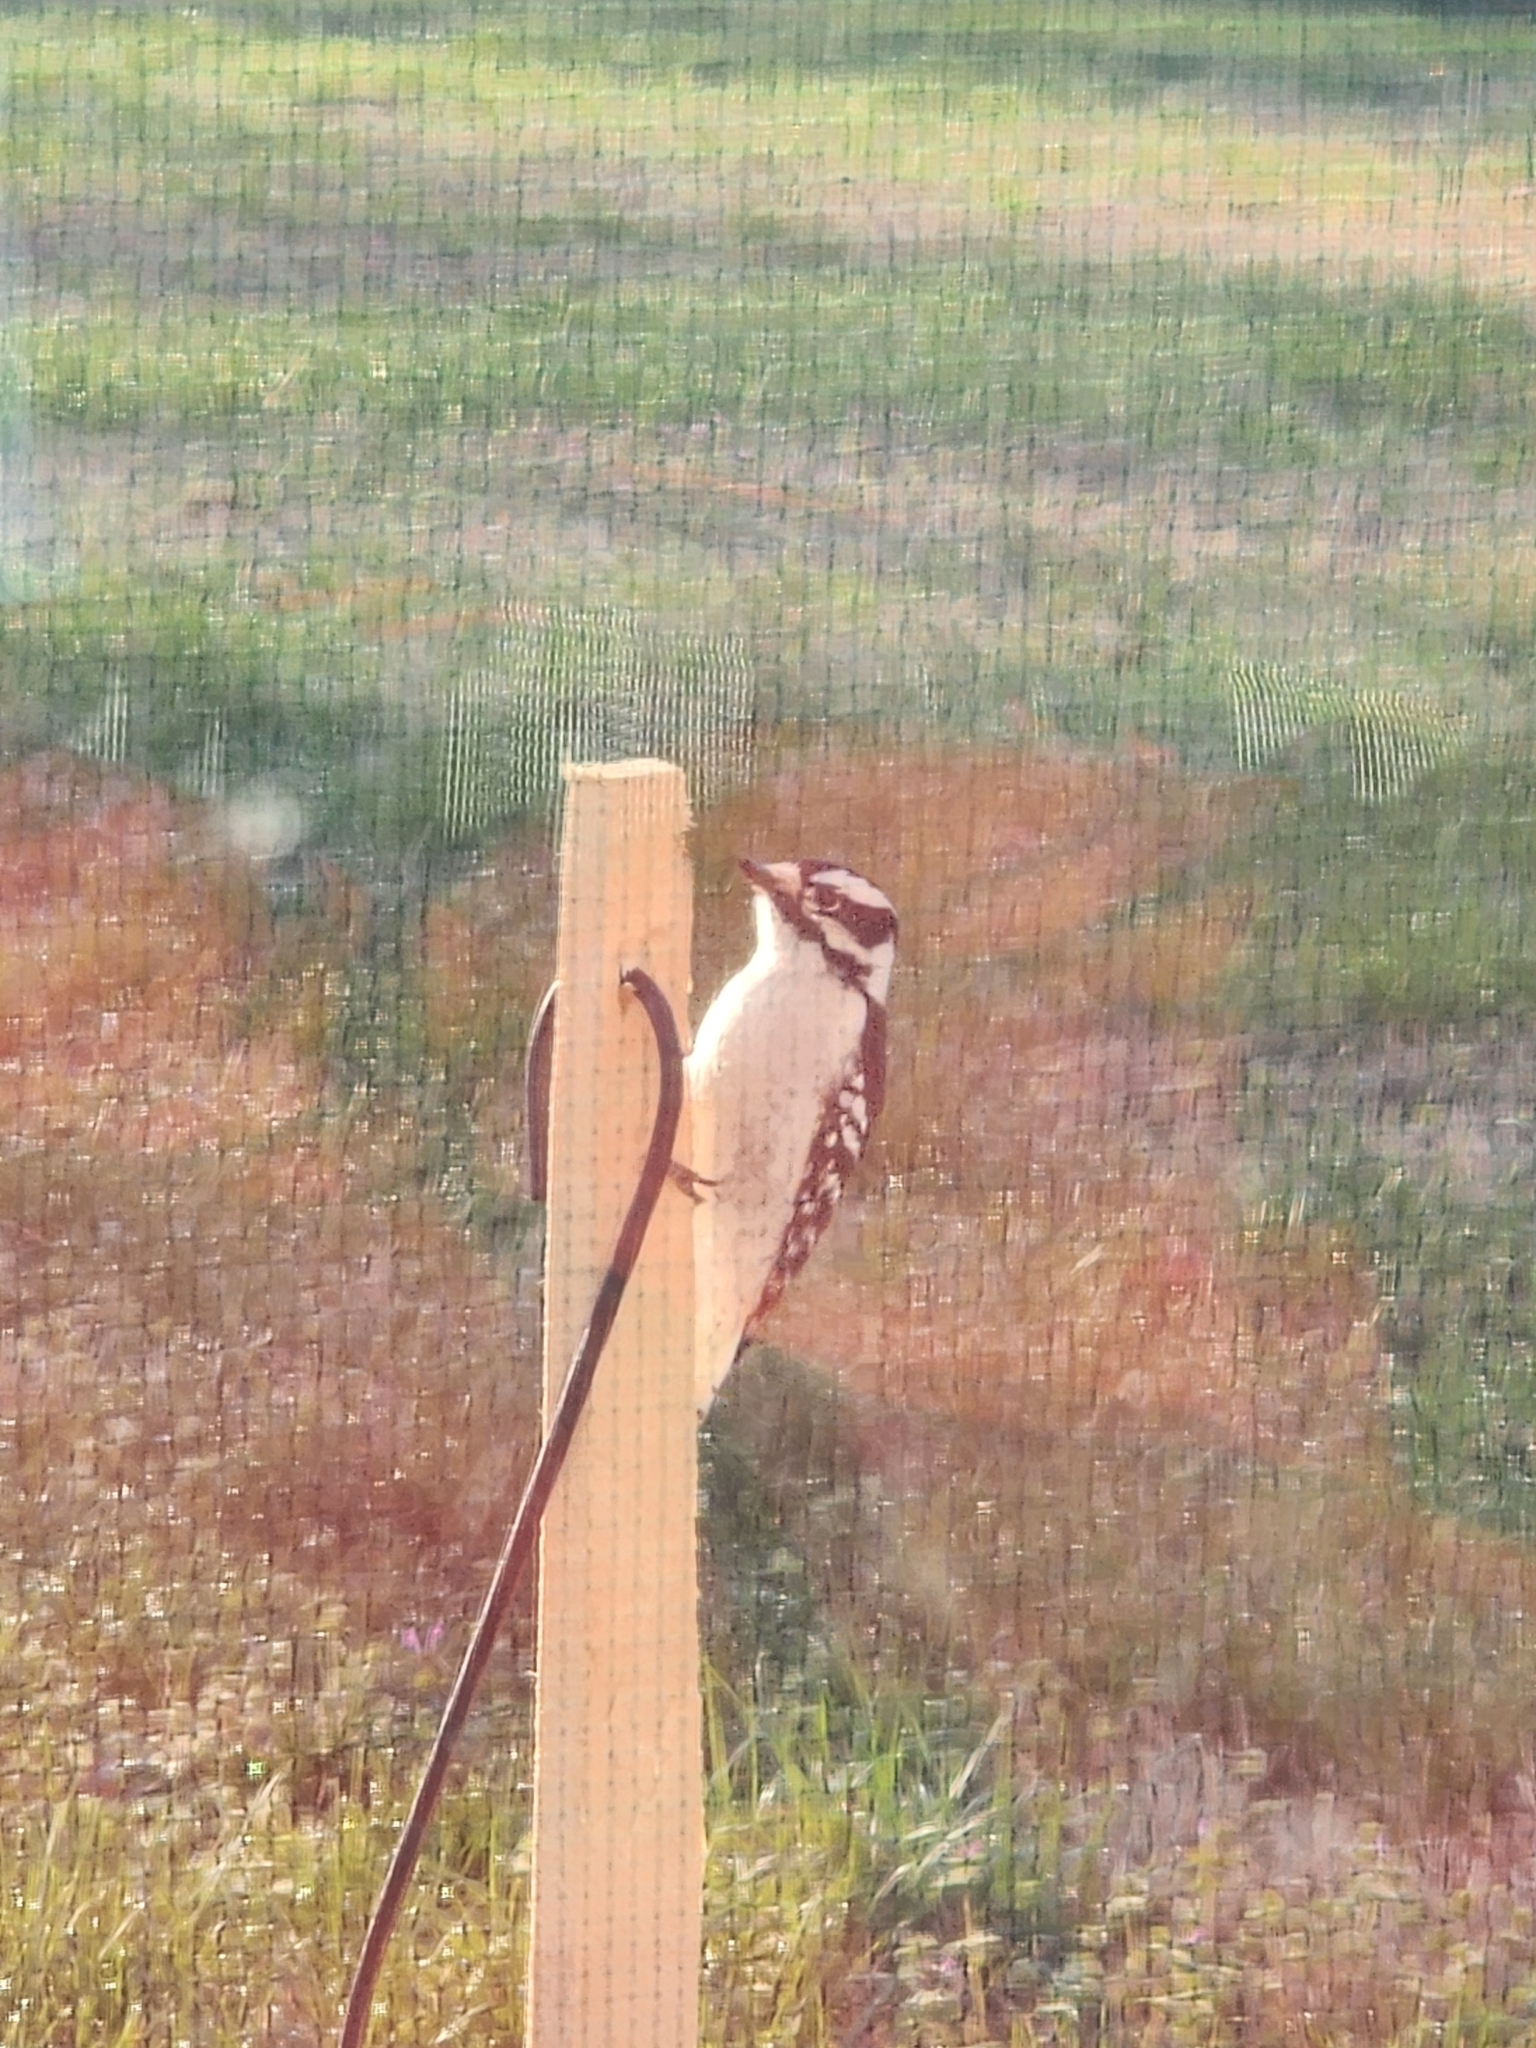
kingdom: Animalia
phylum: Chordata
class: Aves
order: Piciformes
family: Picidae
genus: Dryobates
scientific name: Dryobates pubescens
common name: Downy woodpecker
